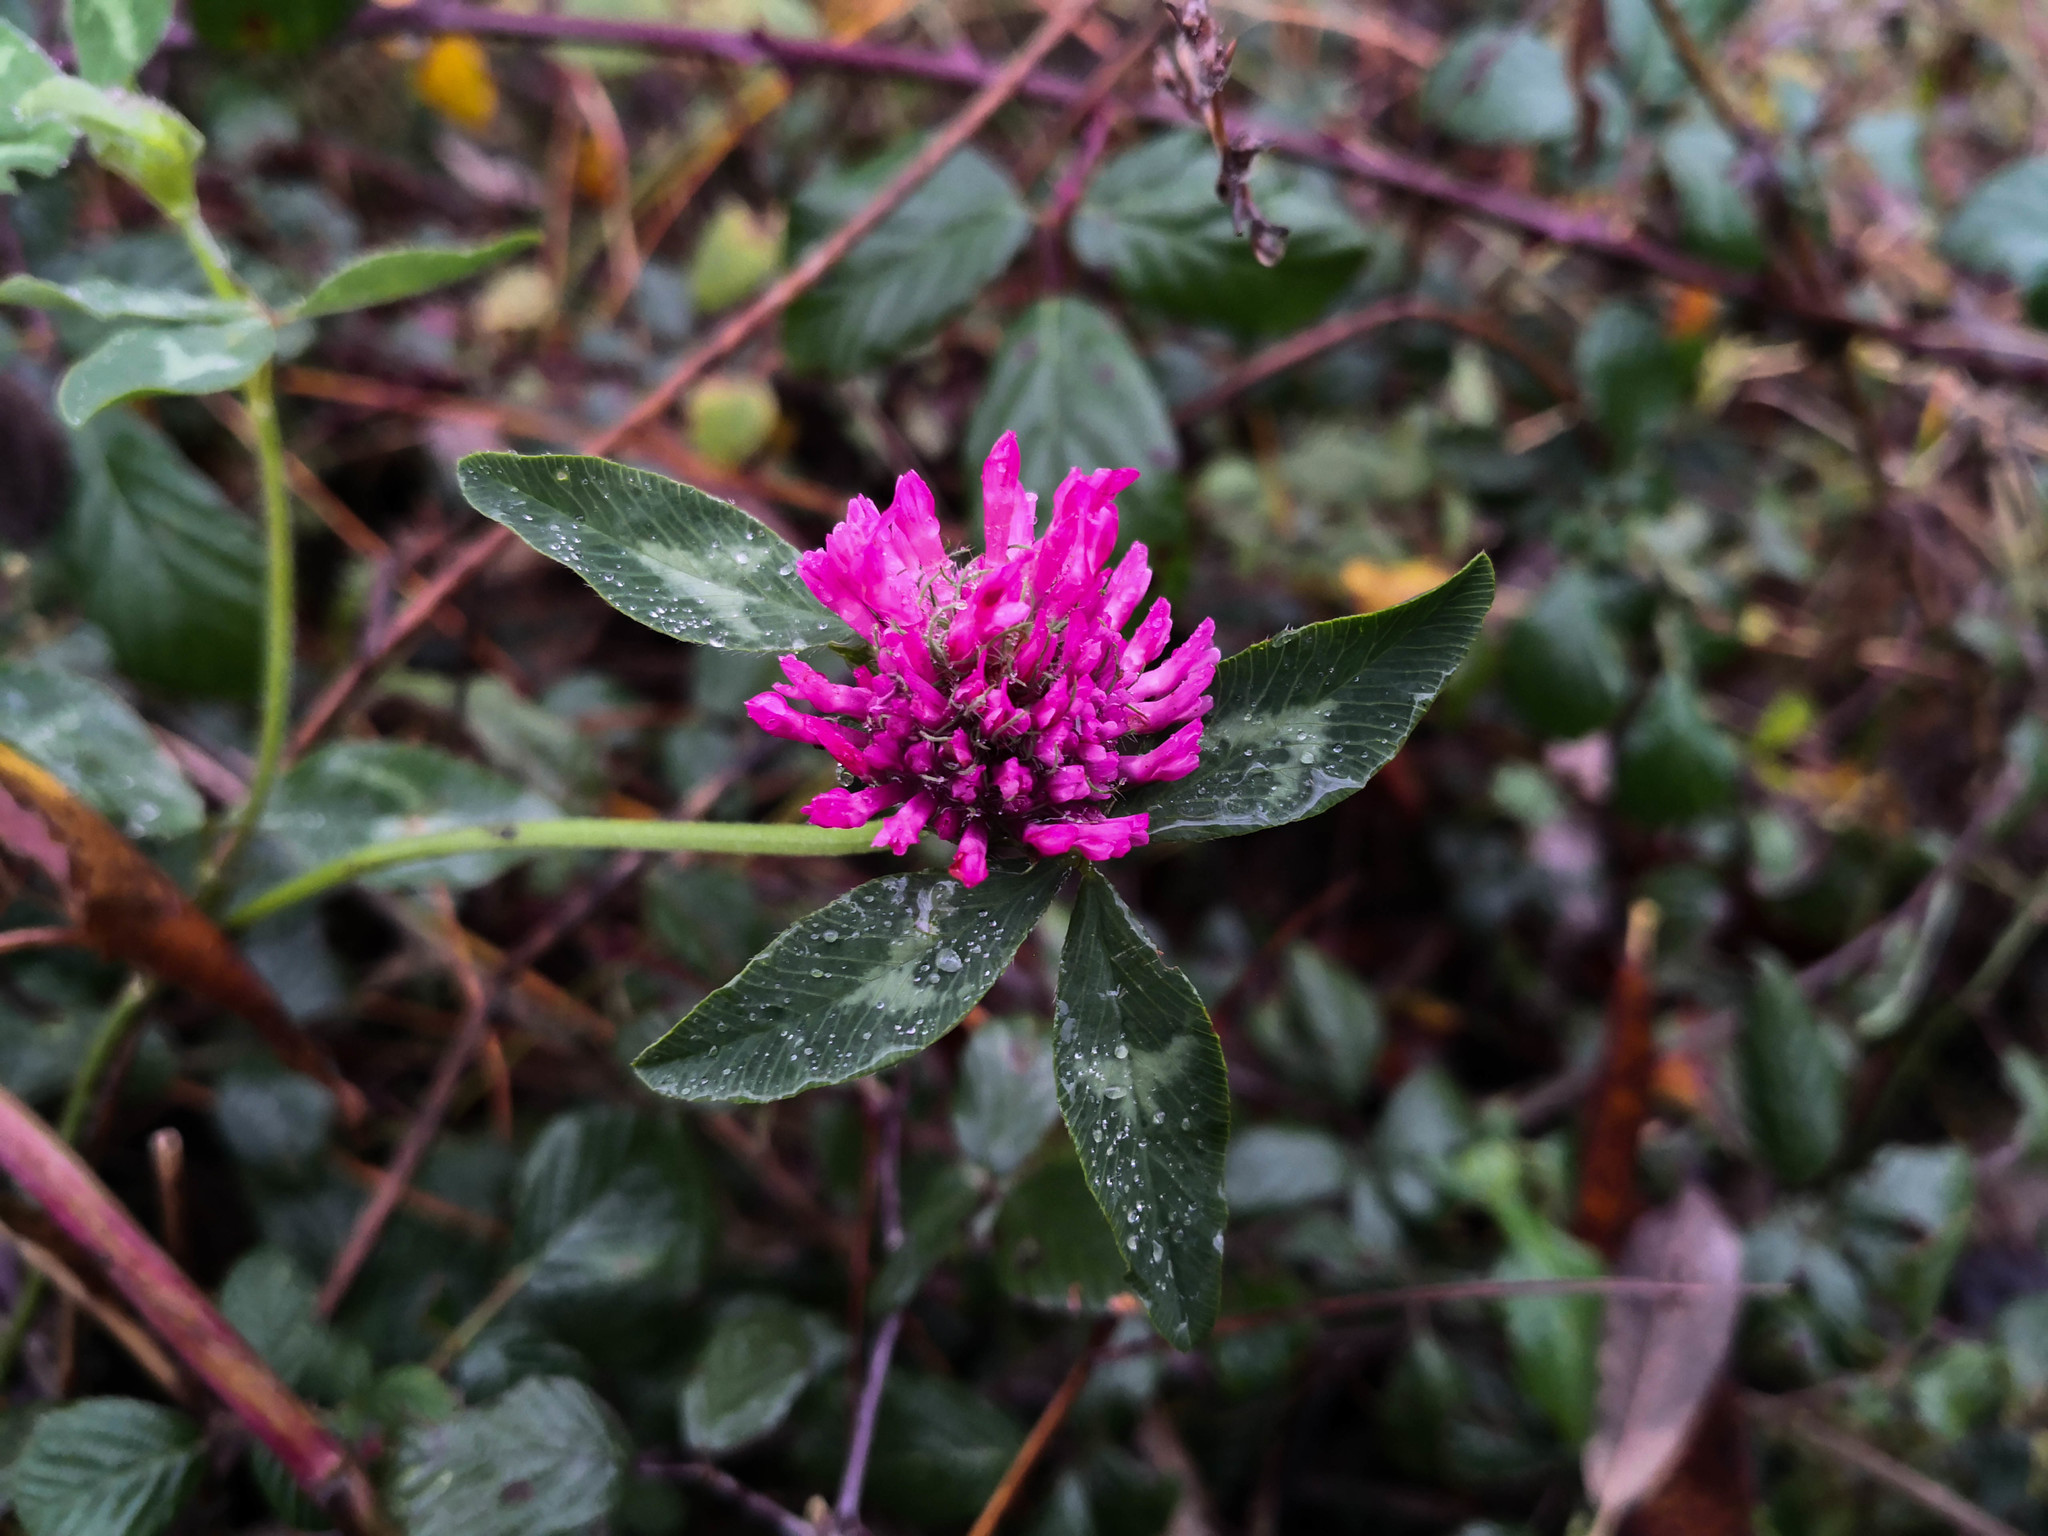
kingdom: Plantae
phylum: Tracheophyta
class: Magnoliopsida
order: Fabales
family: Fabaceae
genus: Trifolium
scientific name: Trifolium pratense
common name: Red clover
